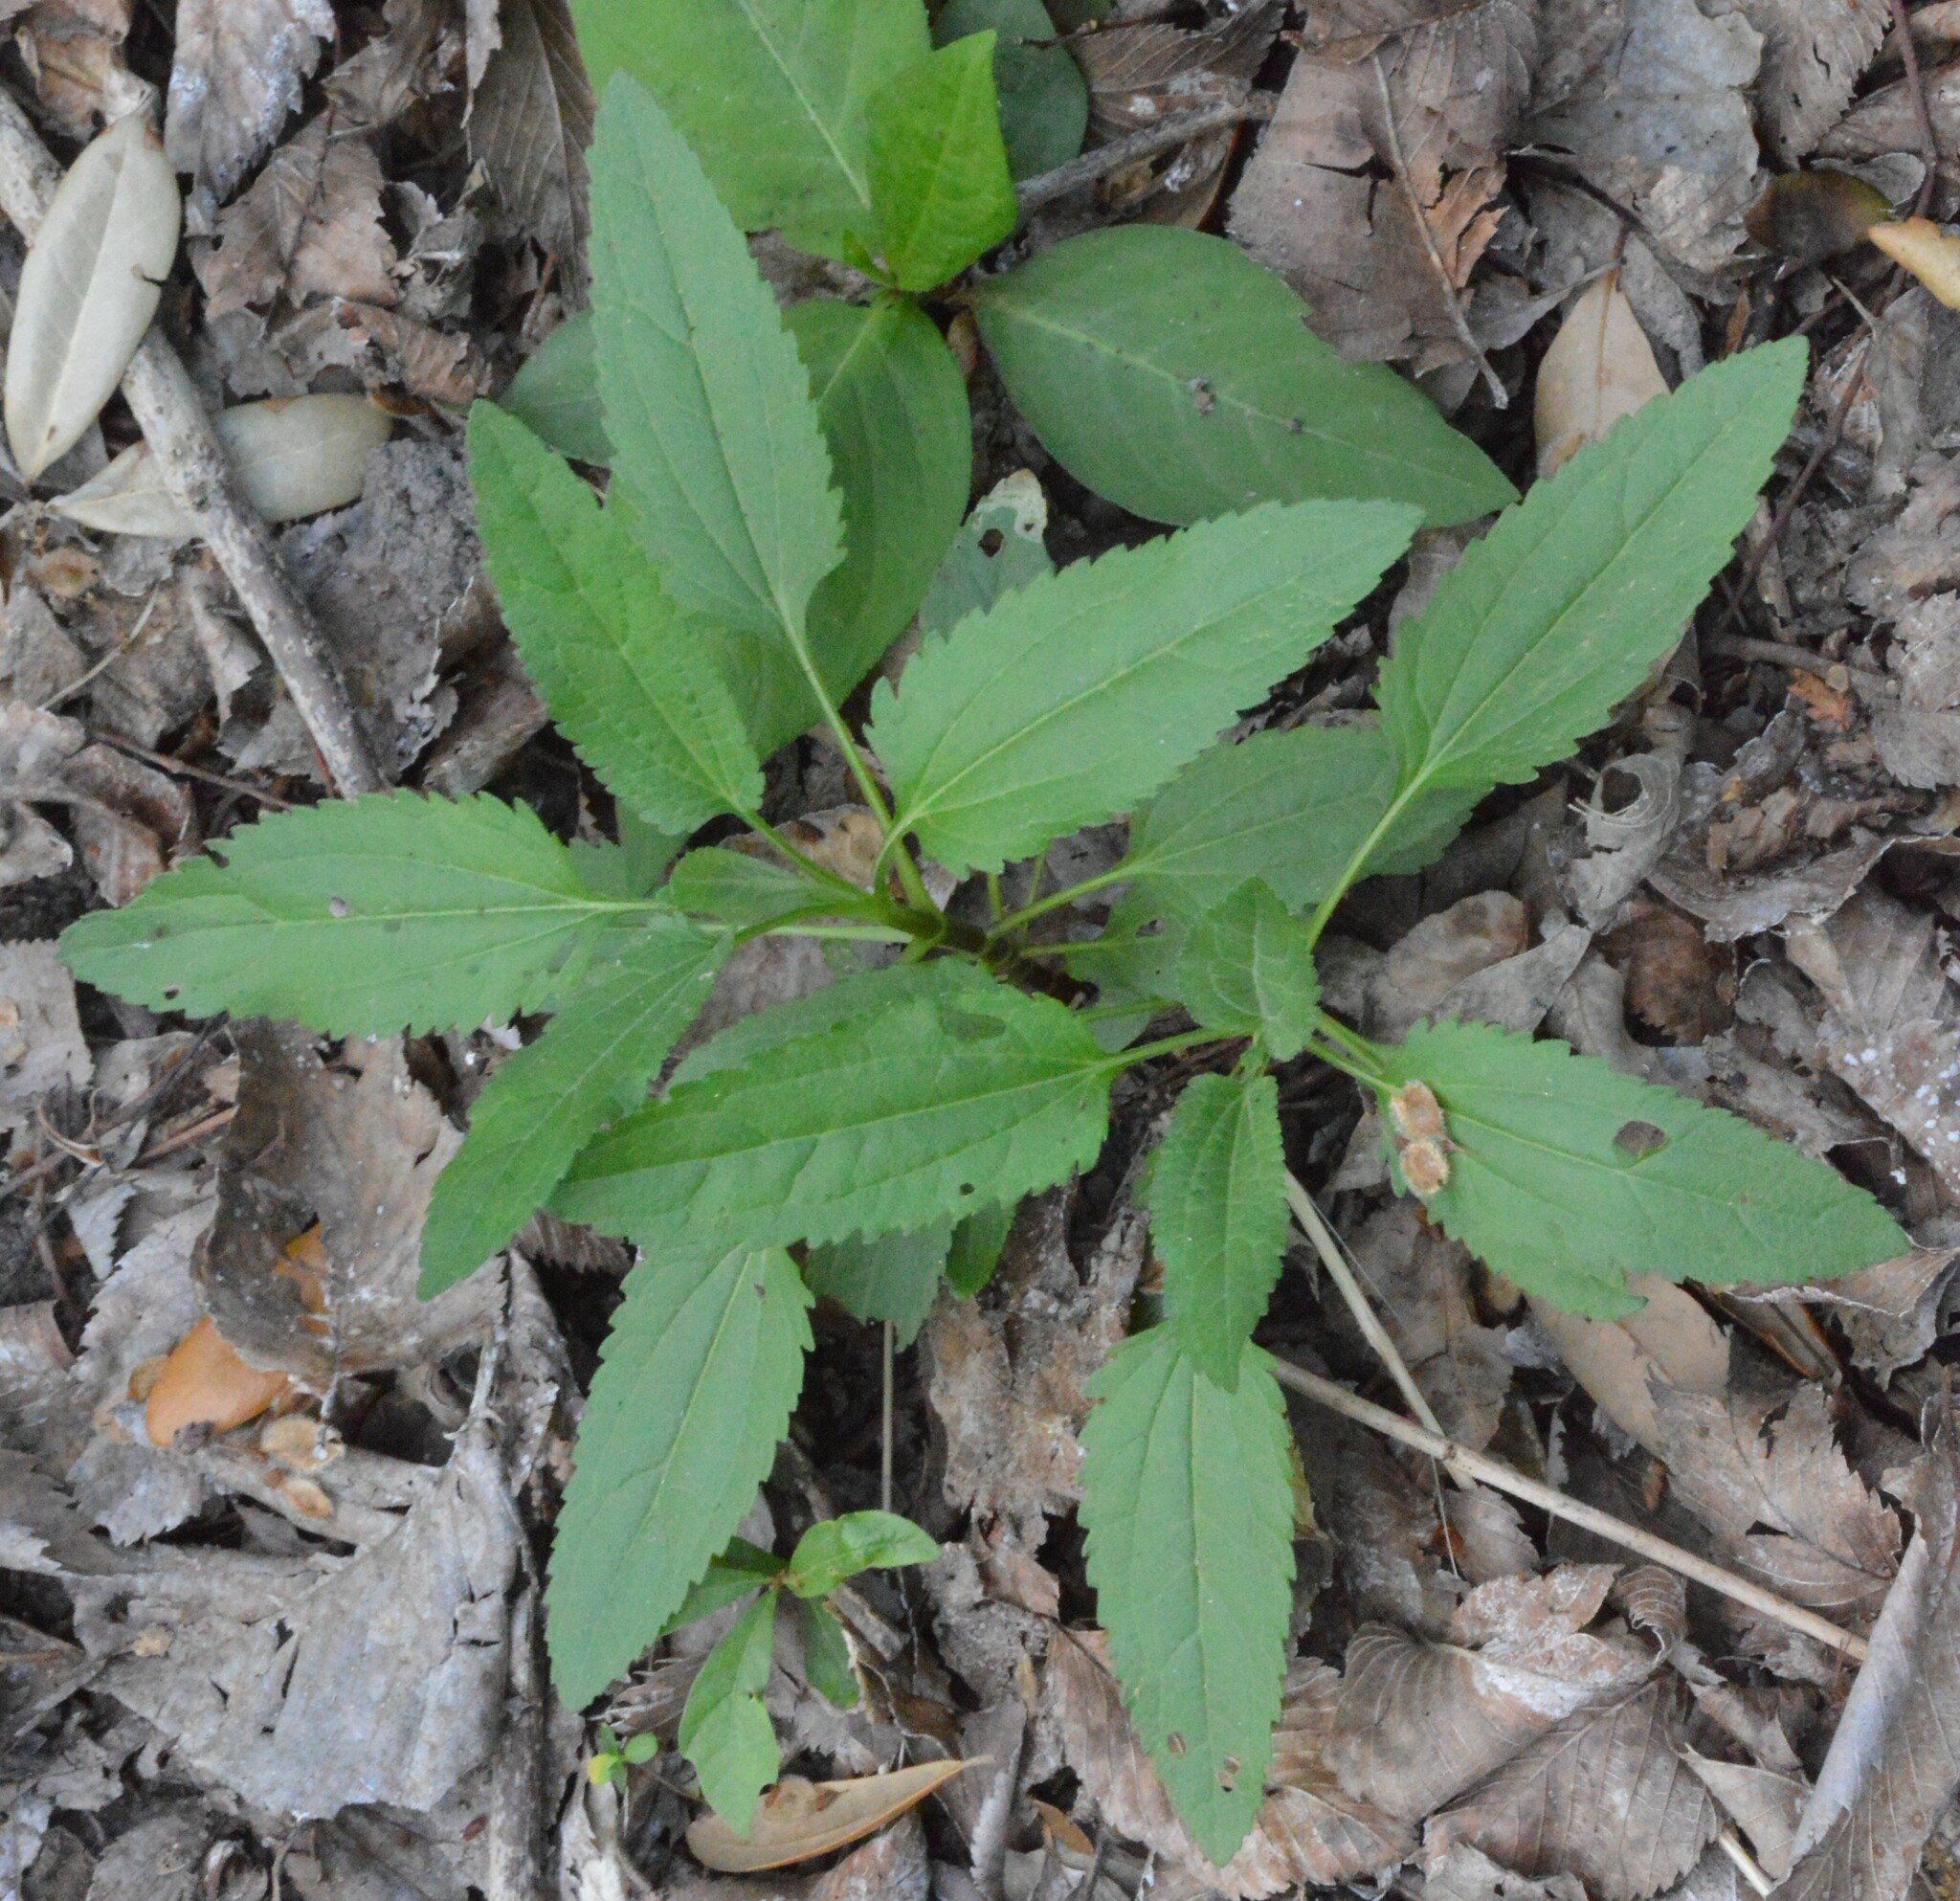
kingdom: Plantae
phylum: Tracheophyta
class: Magnoliopsida
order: Asterales
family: Asteraceae
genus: Eupatorium
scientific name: Eupatorium serotinum
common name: Late boneset
